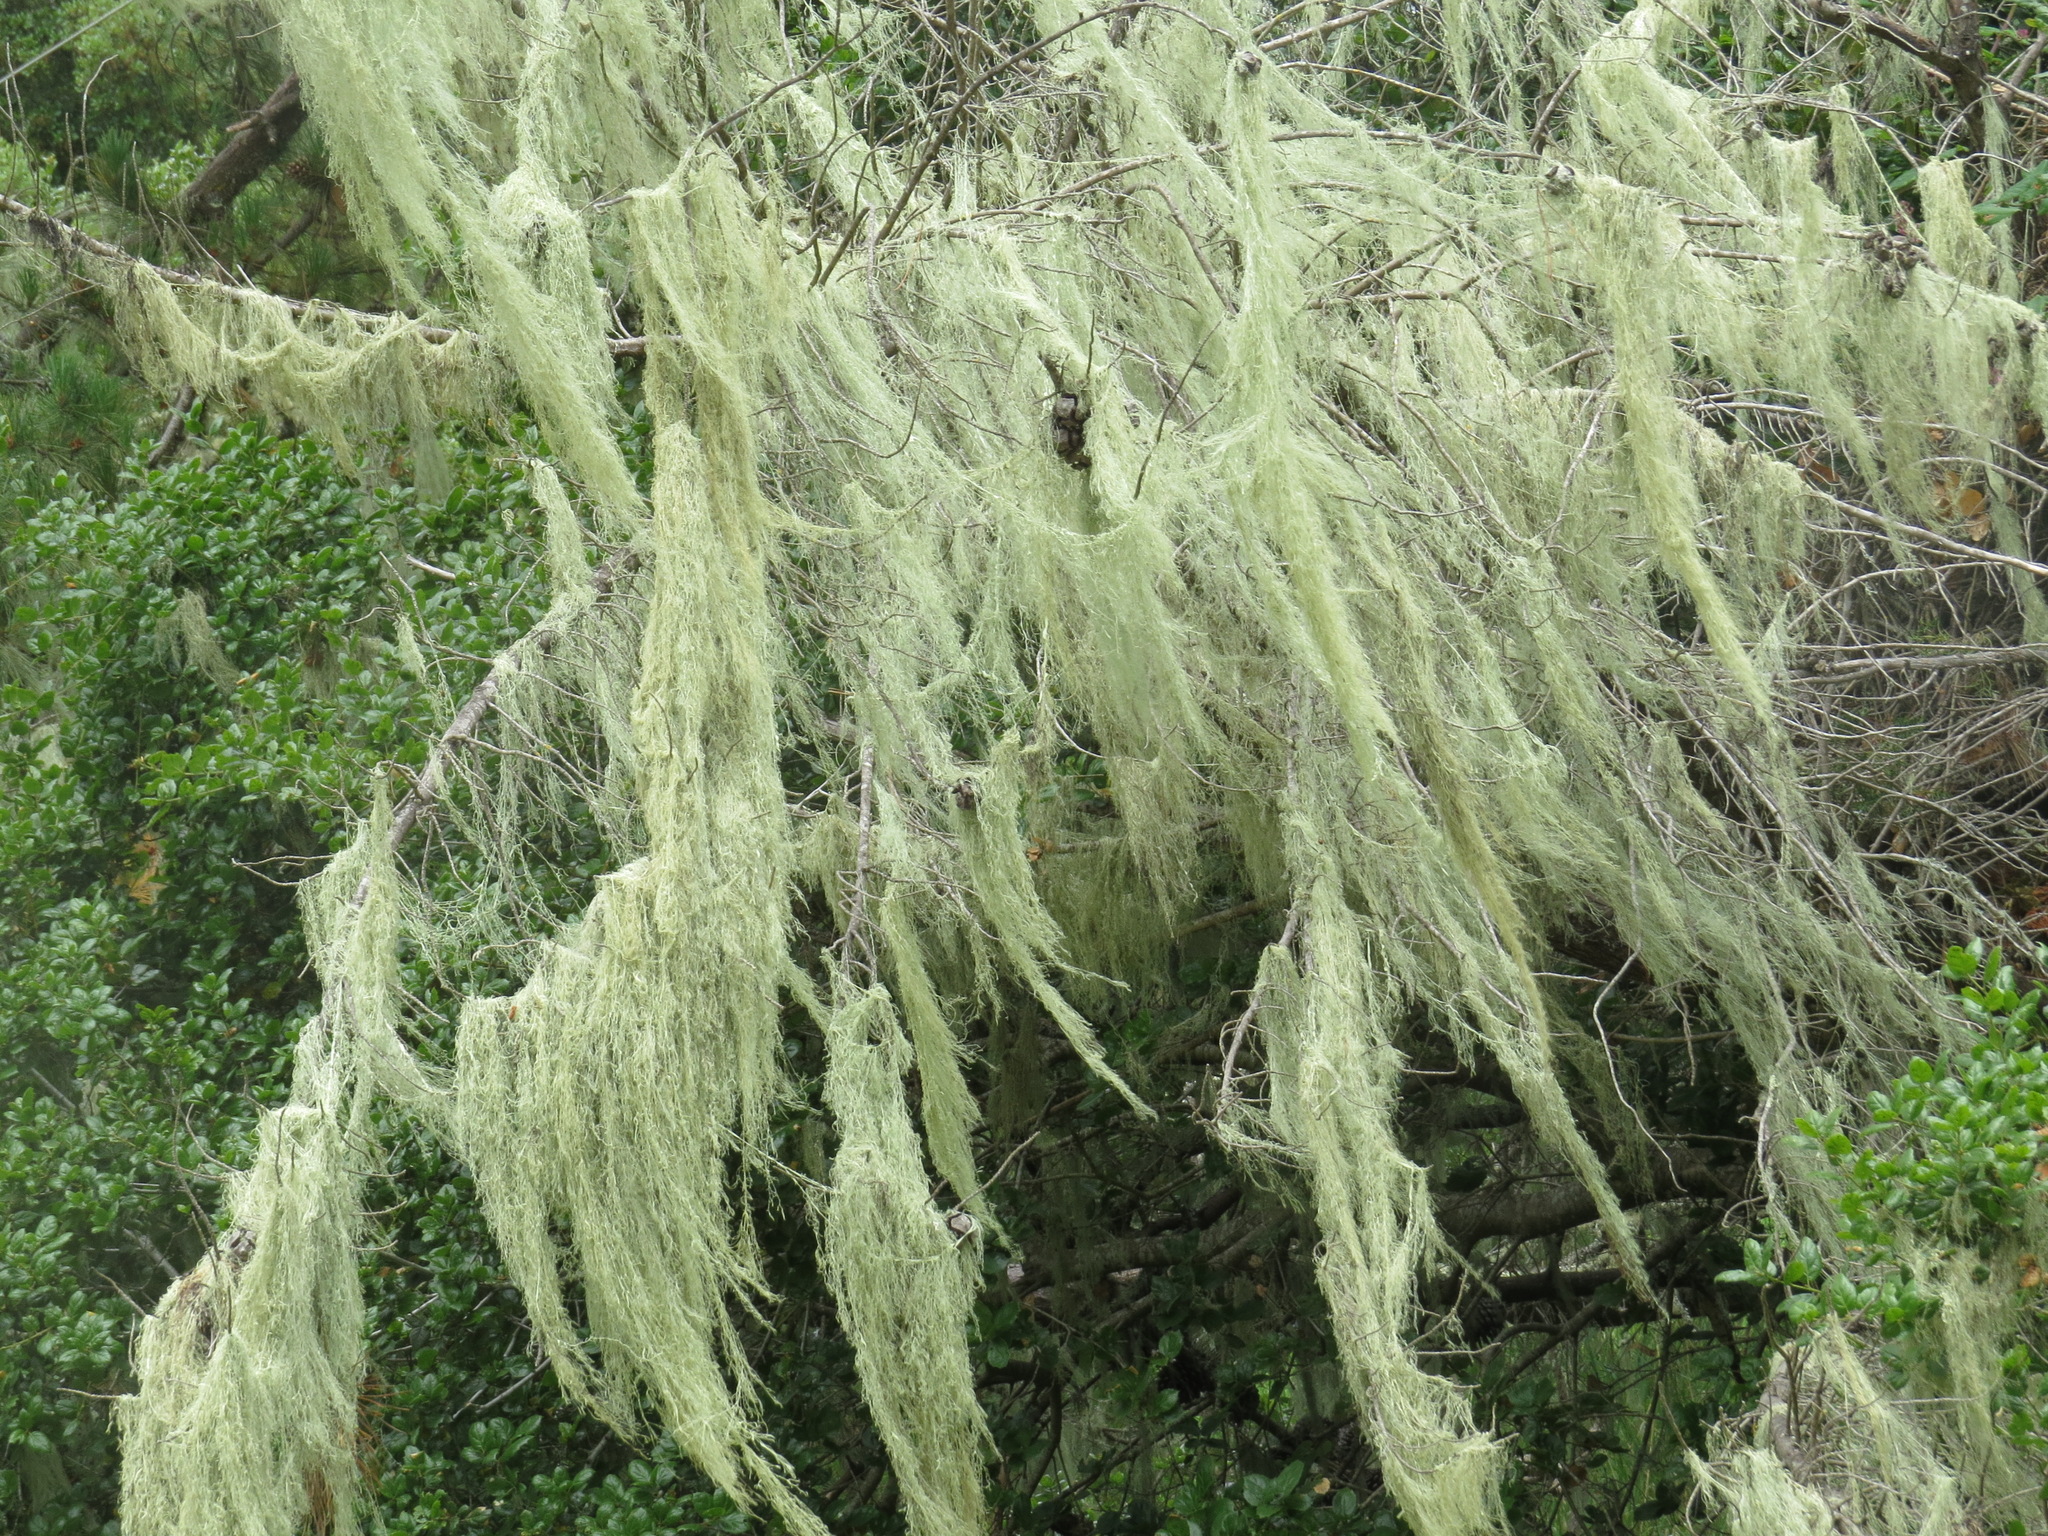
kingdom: Fungi
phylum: Ascomycota
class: Lecanoromycetes
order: Lecanorales
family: Ramalinaceae
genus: Ramalina
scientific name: Ramalina menziesii
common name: Lace lichen
